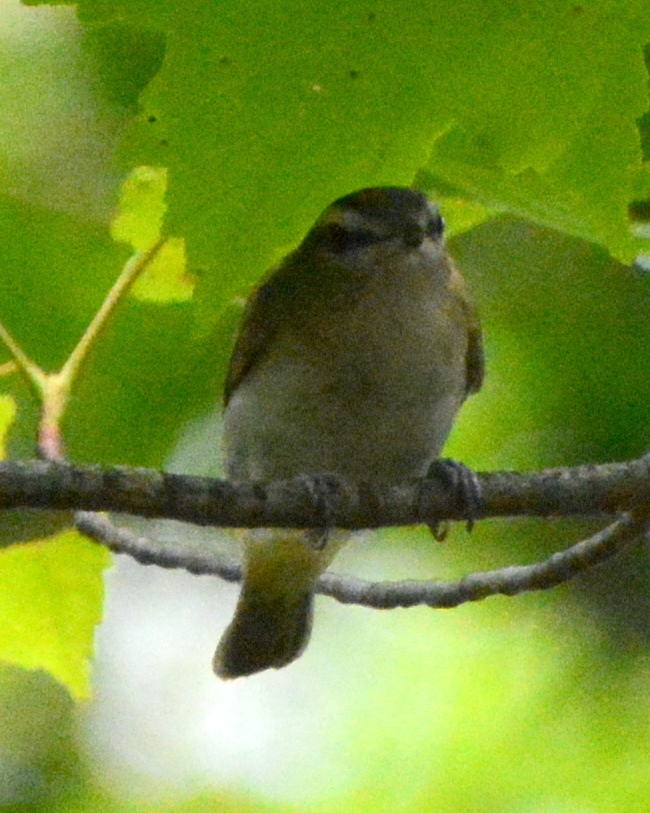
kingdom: Animalia
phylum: Chordata
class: Aves
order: Passeriformes
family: Vireonidae
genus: Vireo
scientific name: Vireo olivaceus
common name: Red-eyed vireo
